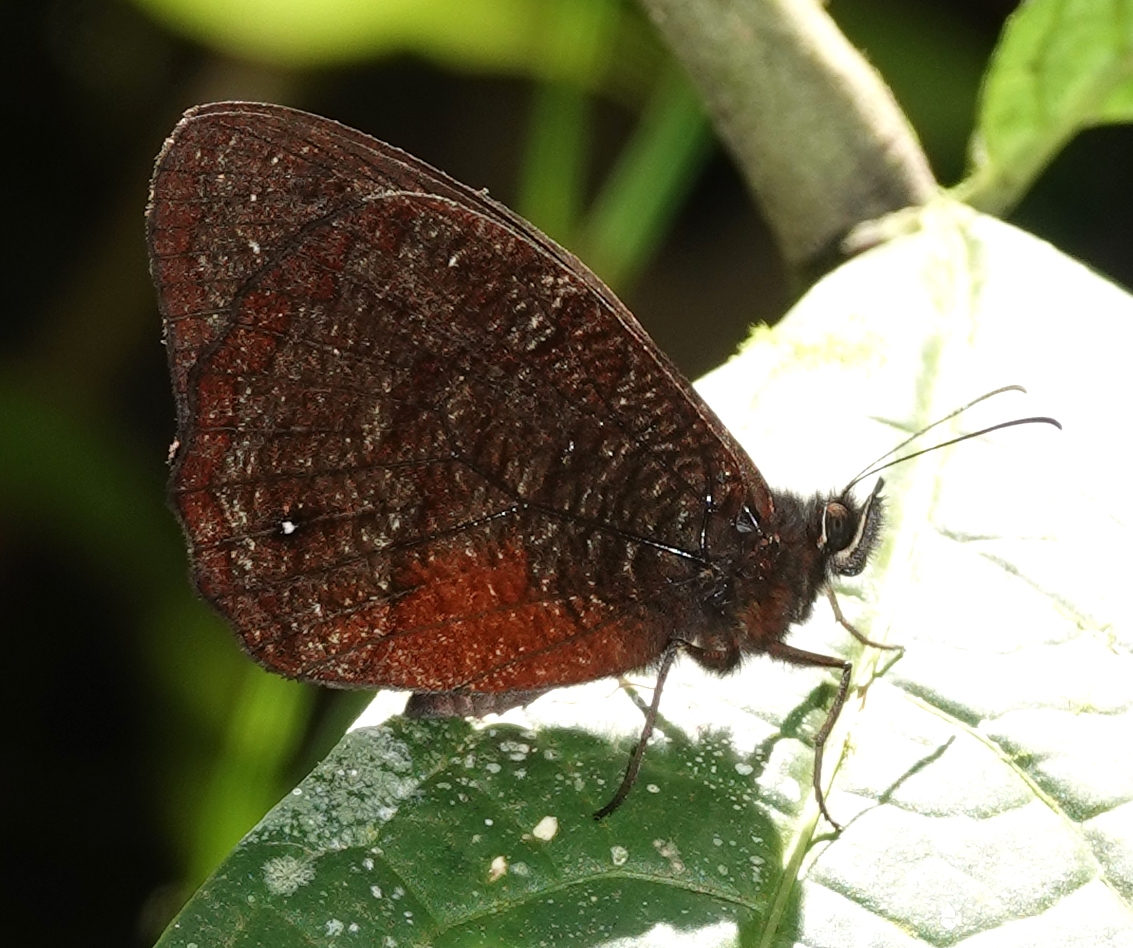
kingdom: Animalia
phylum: Arthropoda
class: Insecta
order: Lepidoptera
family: Nymphalidae
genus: Pedaliodes
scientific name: Pedaliodes
